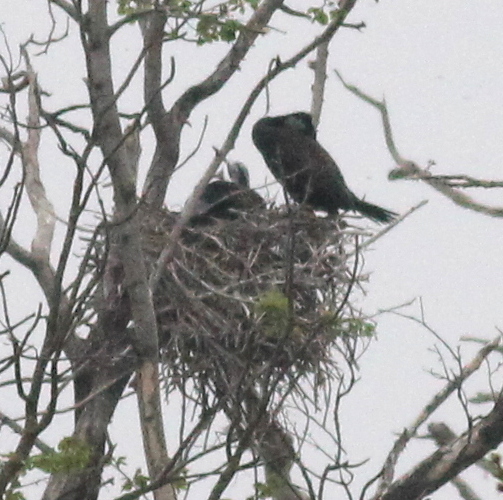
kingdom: Animalia
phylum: Chordata
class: Aves
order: Suliformes
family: Phalacrocoracidae
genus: Phalacrocorax
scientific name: Phalacrocorax carbo
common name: Great cormorant
